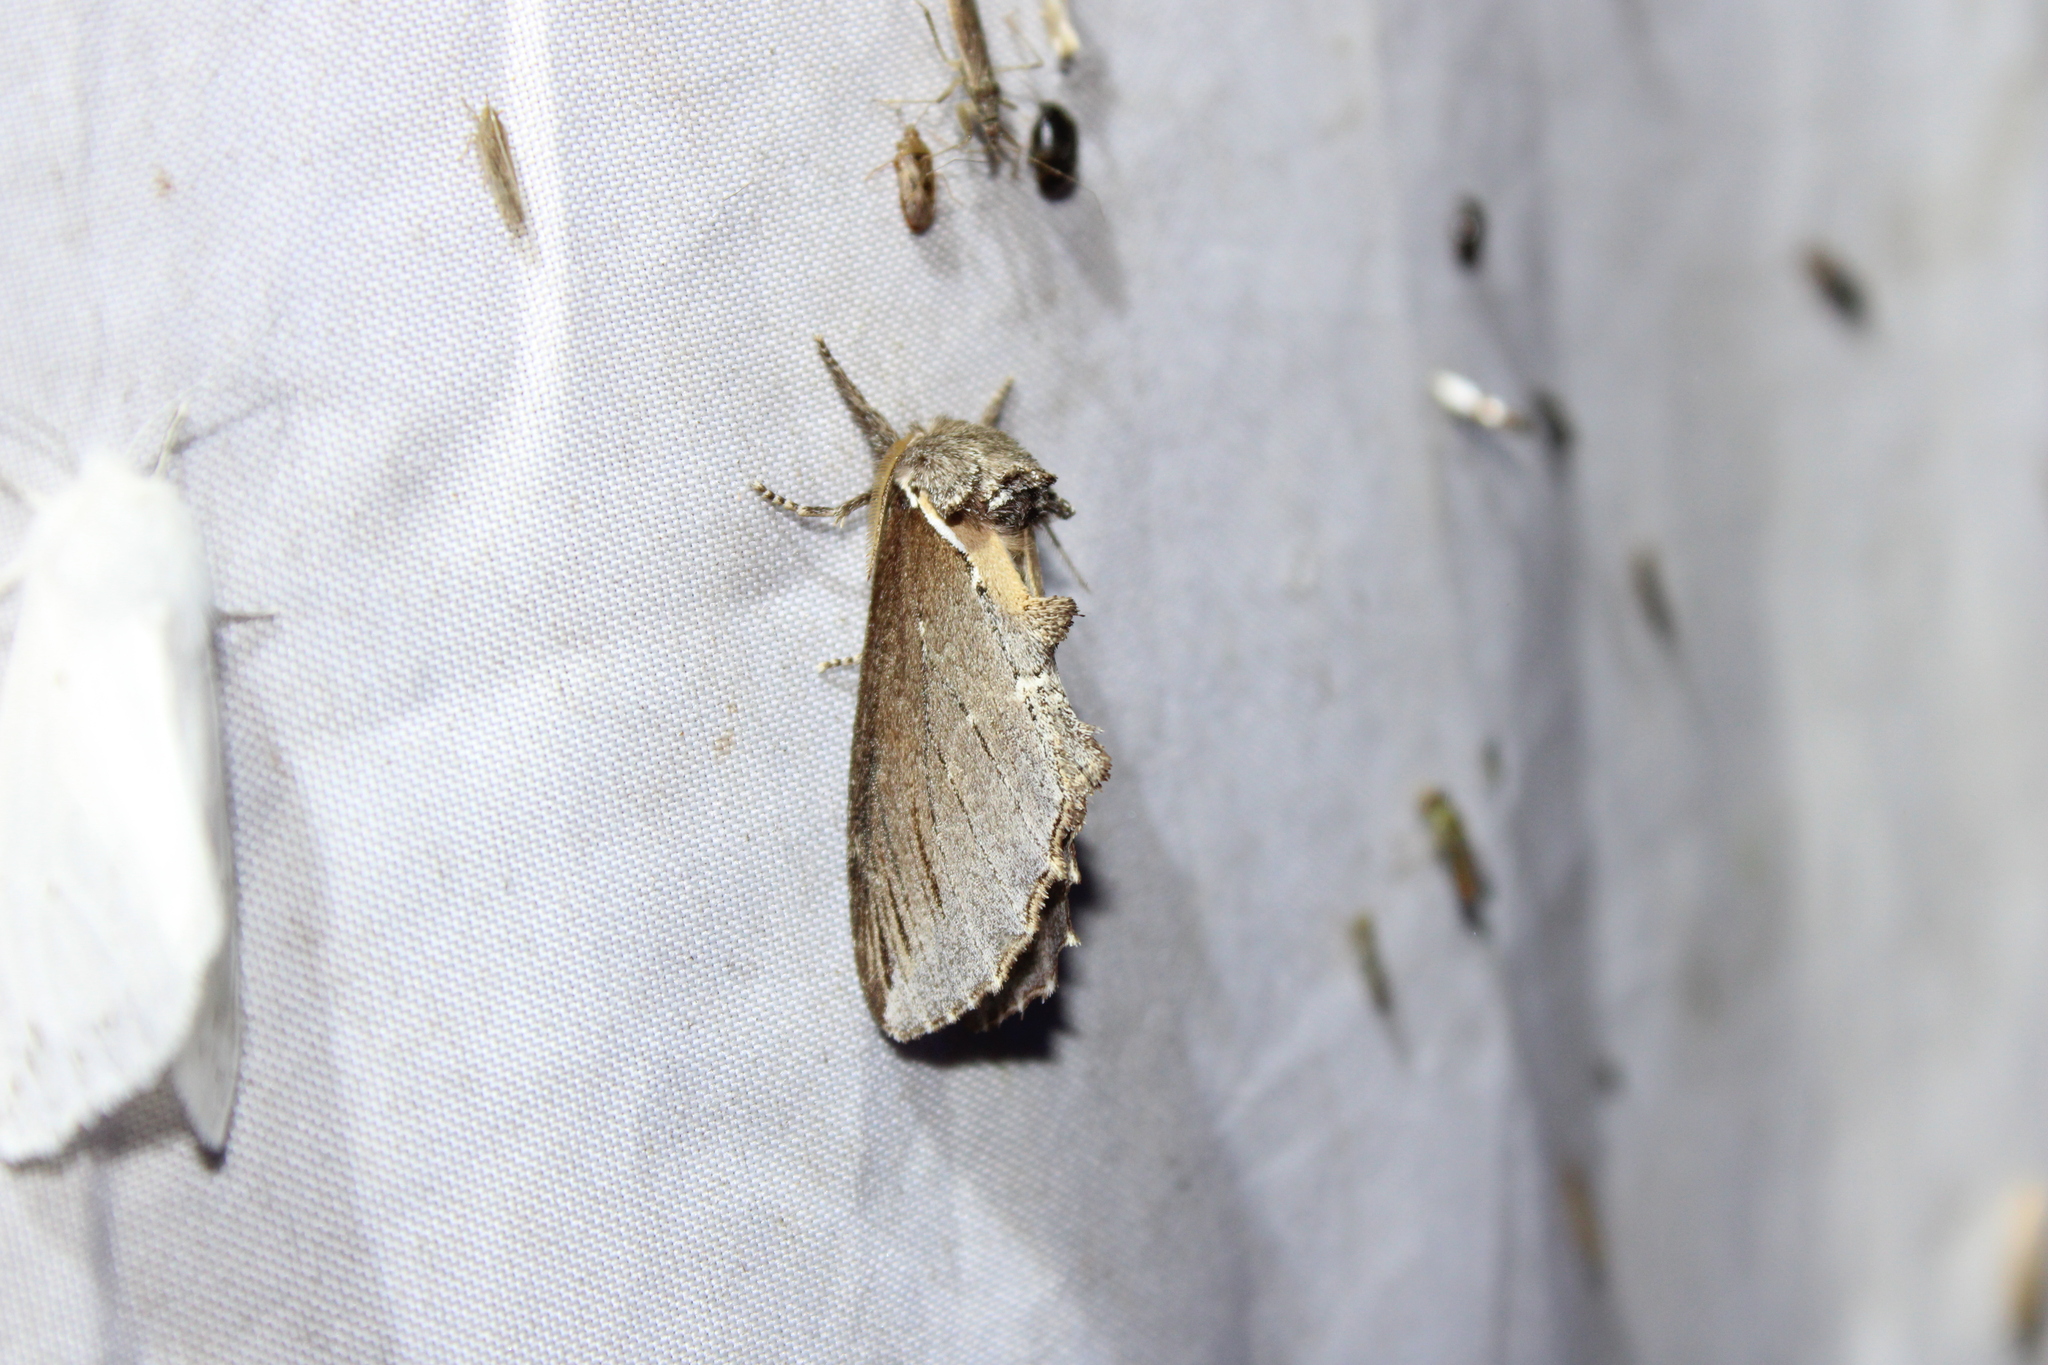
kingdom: Animalia
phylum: Arthropoda
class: Insecta
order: Lepidoptera
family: Notodontidae
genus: Pheosidea
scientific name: Pheosidea elegans
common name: Elegant prominent
